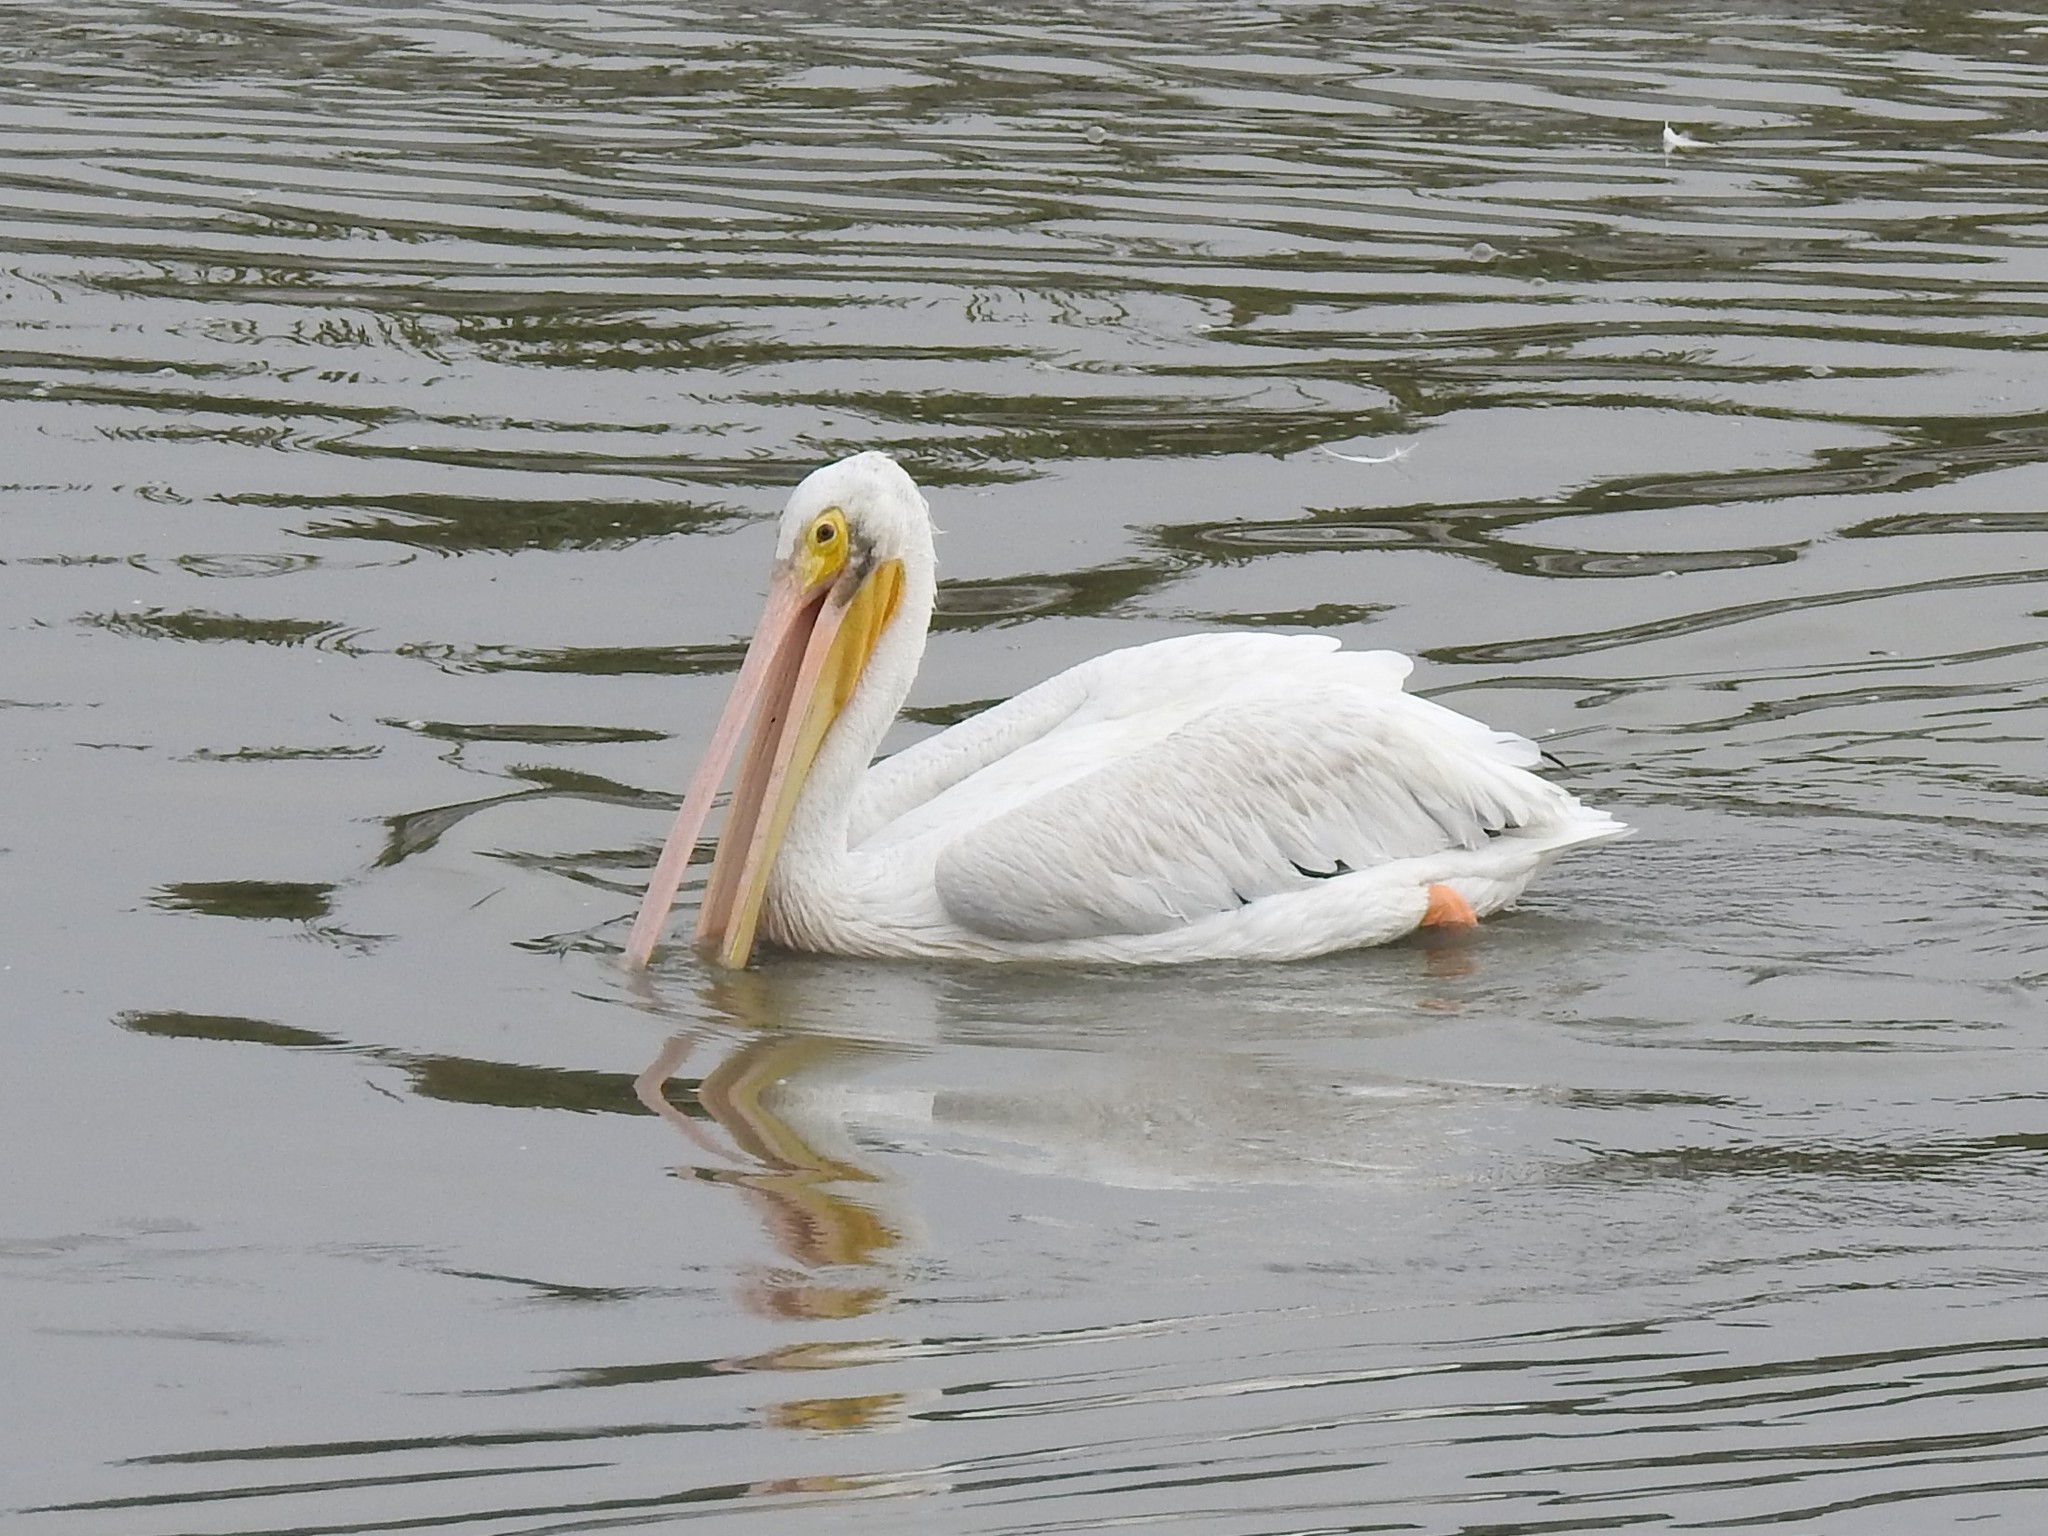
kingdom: Animalia
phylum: Chordata
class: Aves
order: Pelecaniformes
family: Pelecanidae
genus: Pelecanus
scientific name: Pelecanus erythrorhynchos
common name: American white pelican
